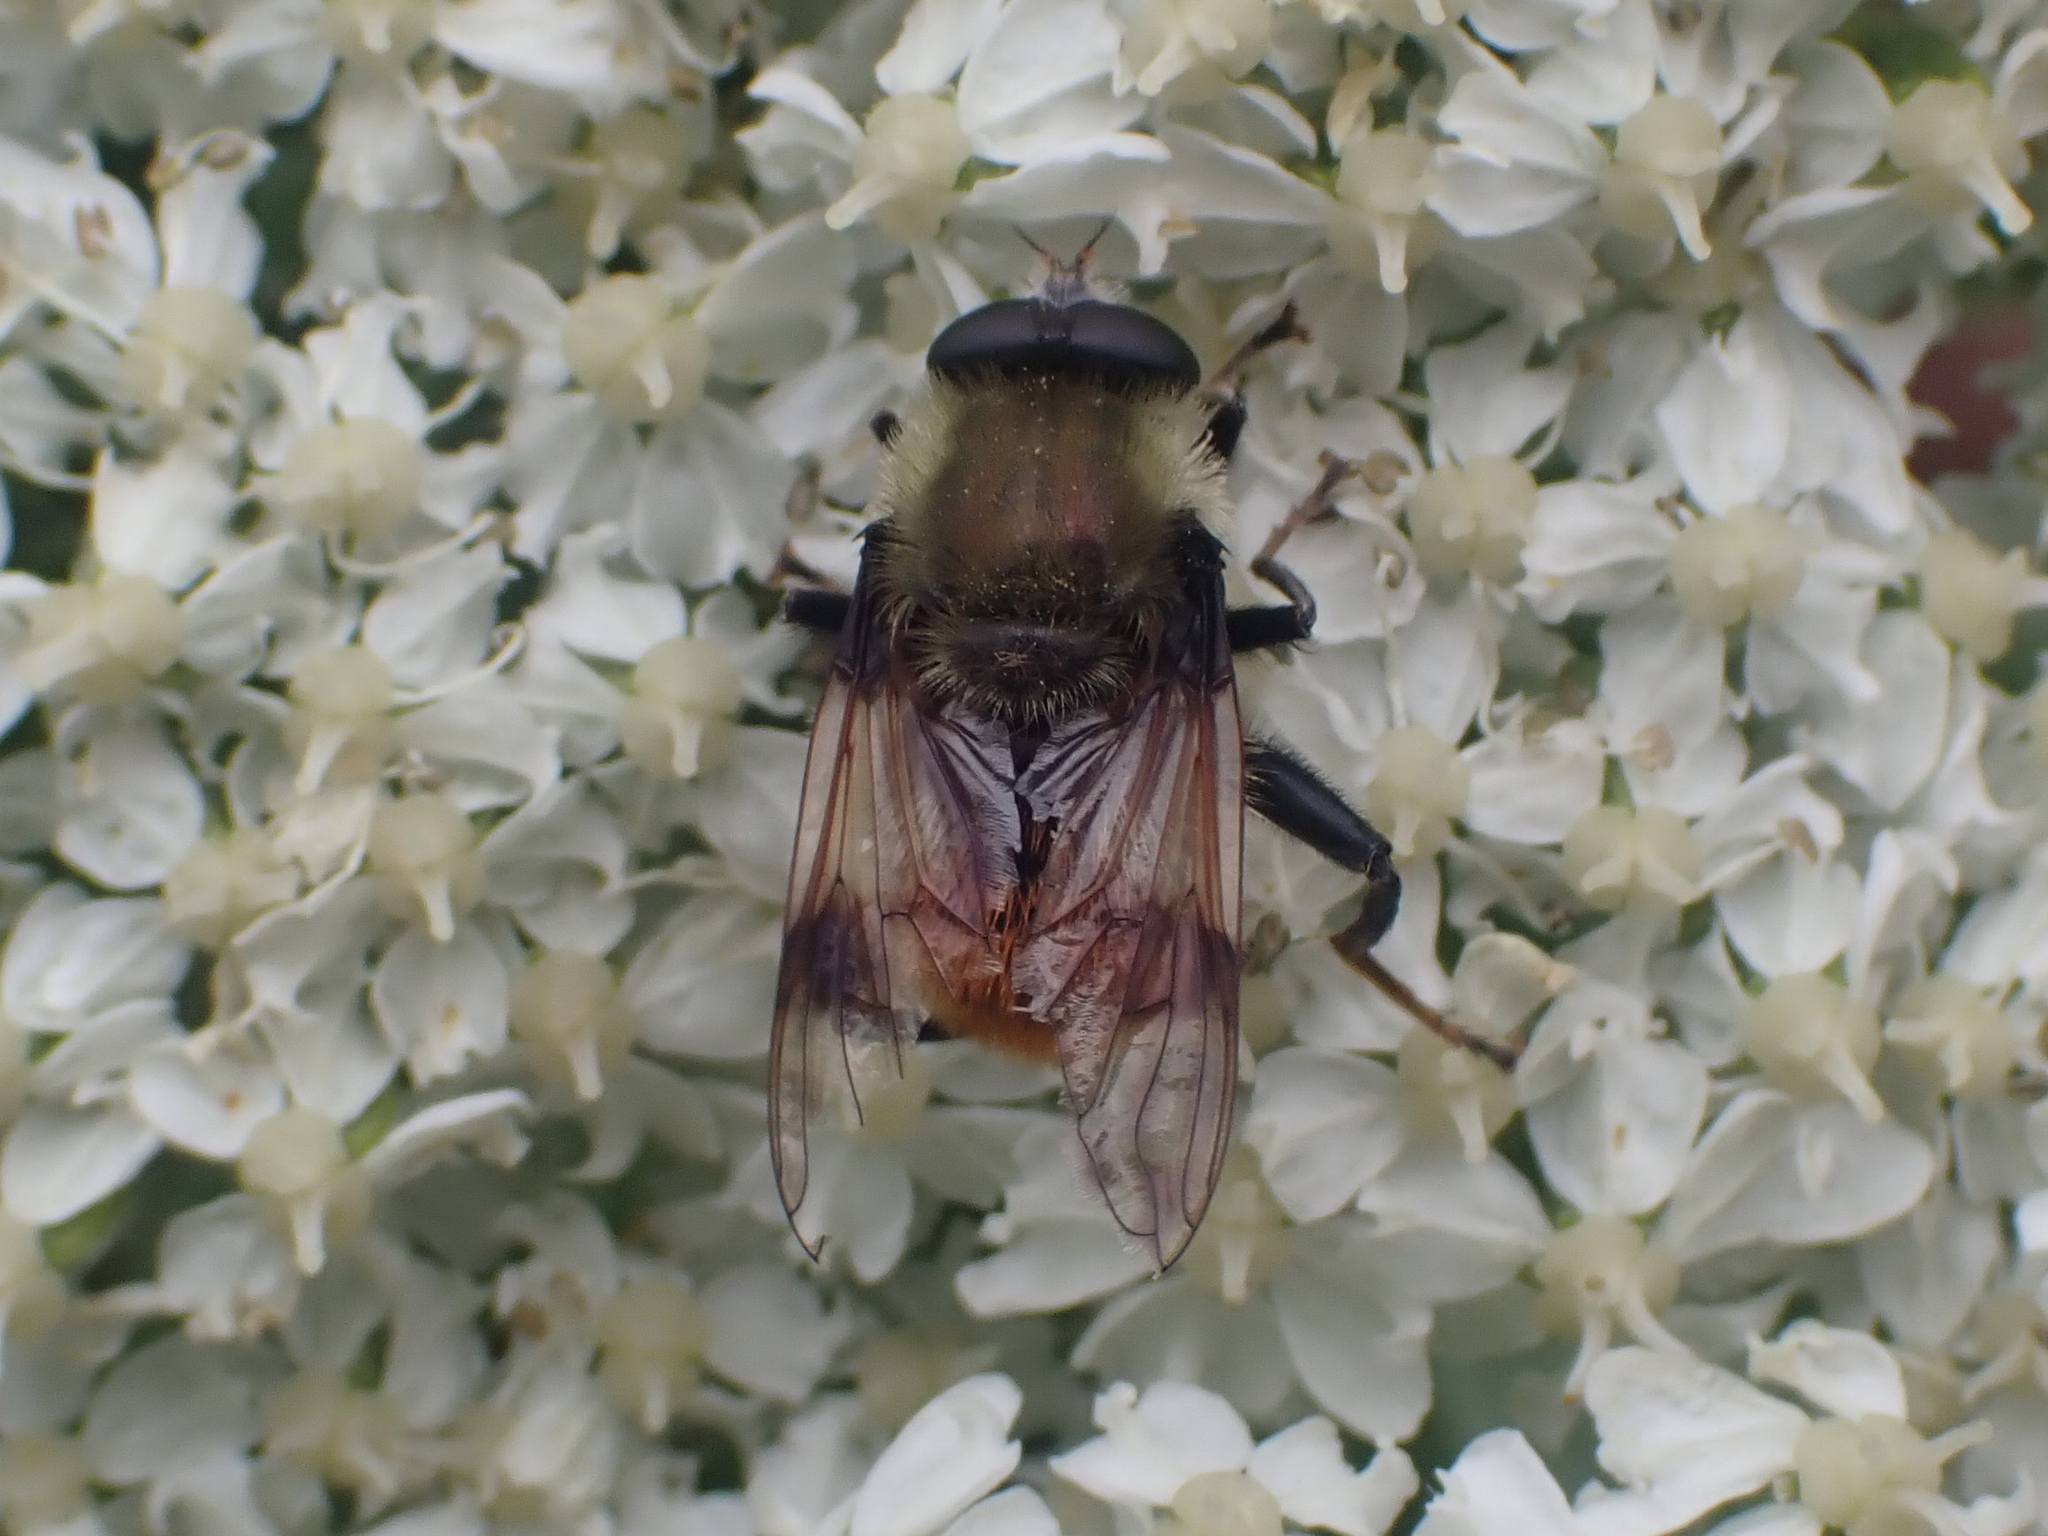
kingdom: Animalia
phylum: Arthropoda
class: Insecta
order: Diptera
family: Syrphidae
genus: Sericomyia
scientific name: Sericomyia flagrans
